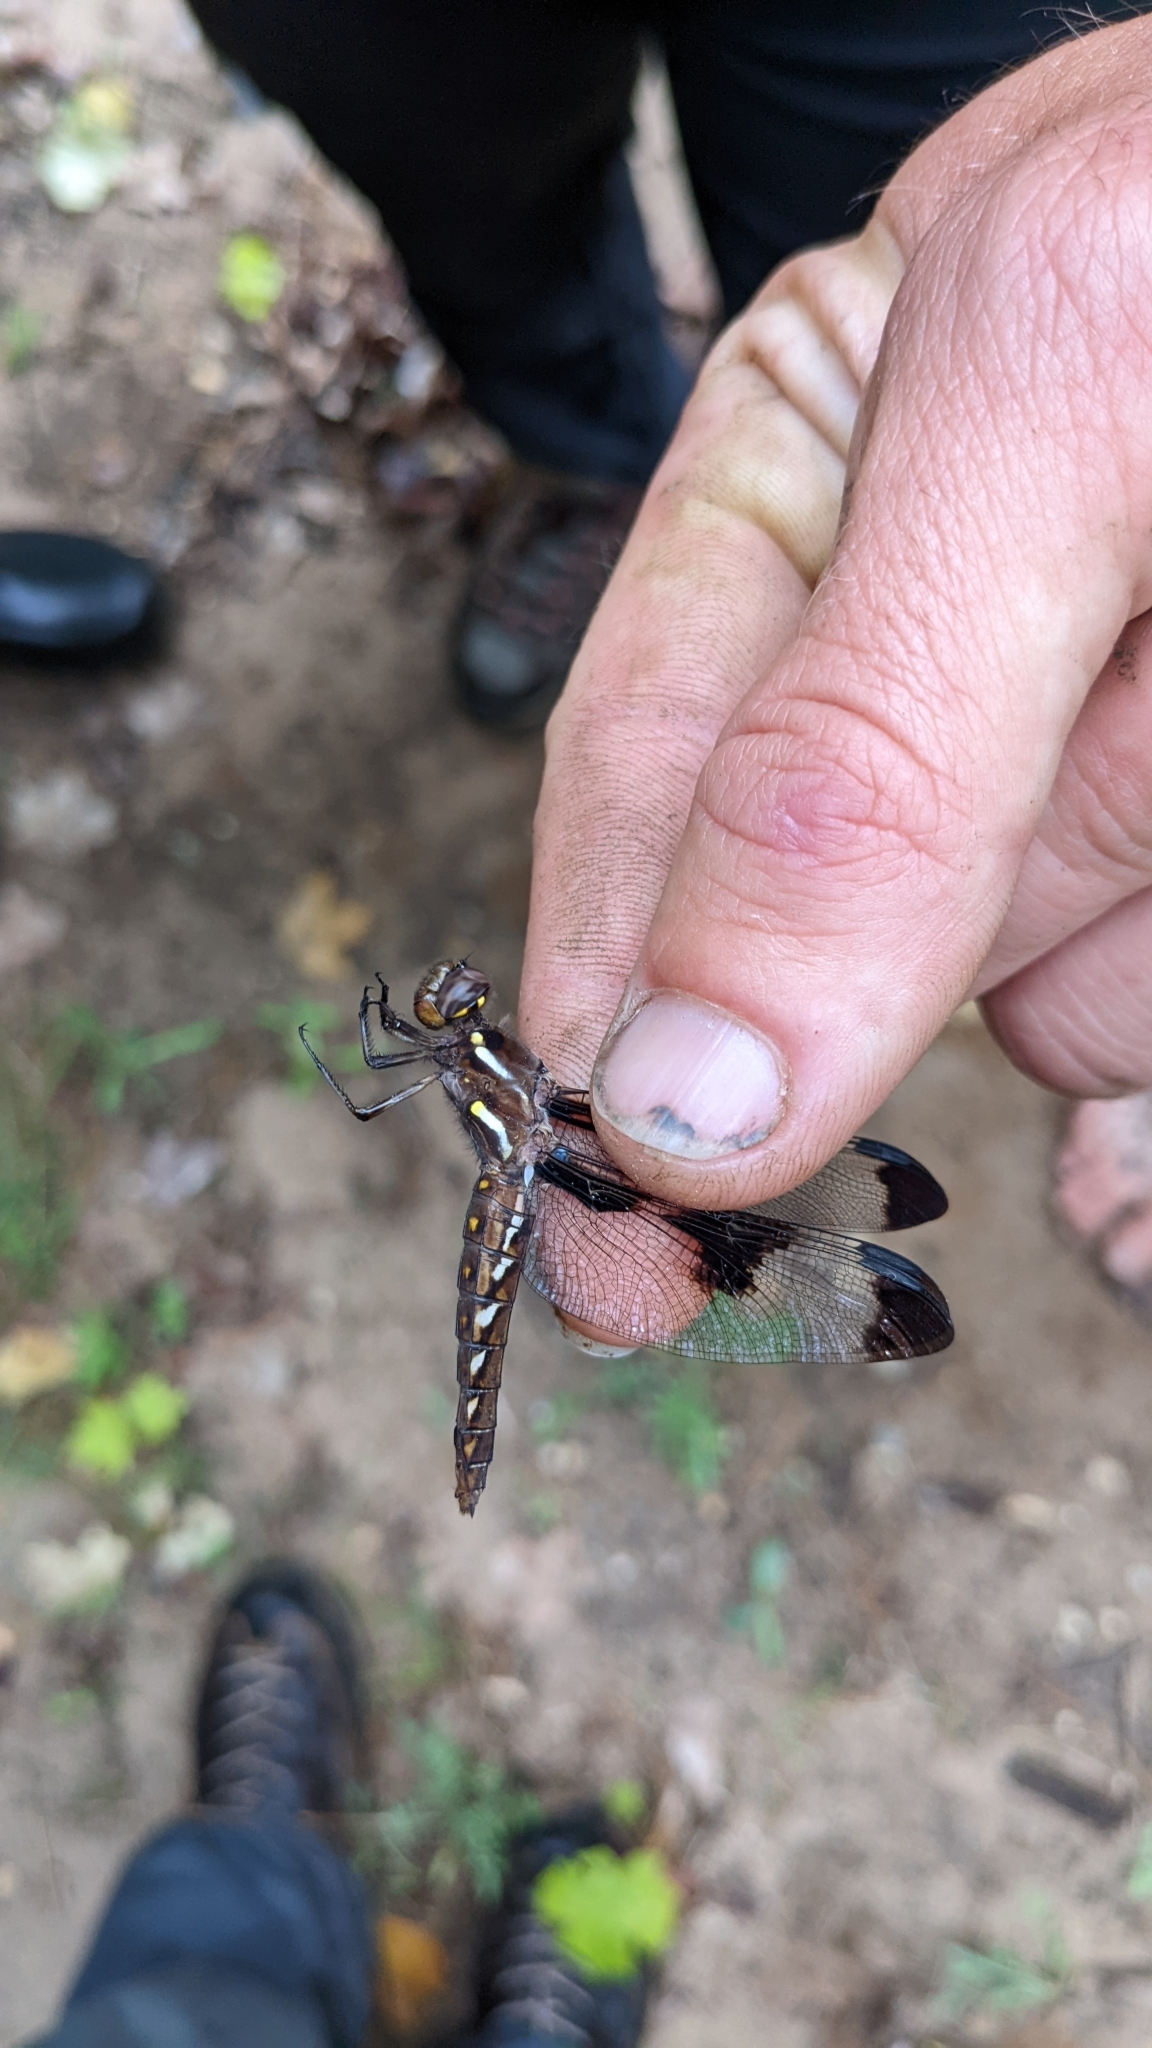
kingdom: Animalia
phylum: Arthropoda
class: Insecta
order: Odonata
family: Libellulidae
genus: Plathemis
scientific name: Plathemis lydia
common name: Common whitetail
